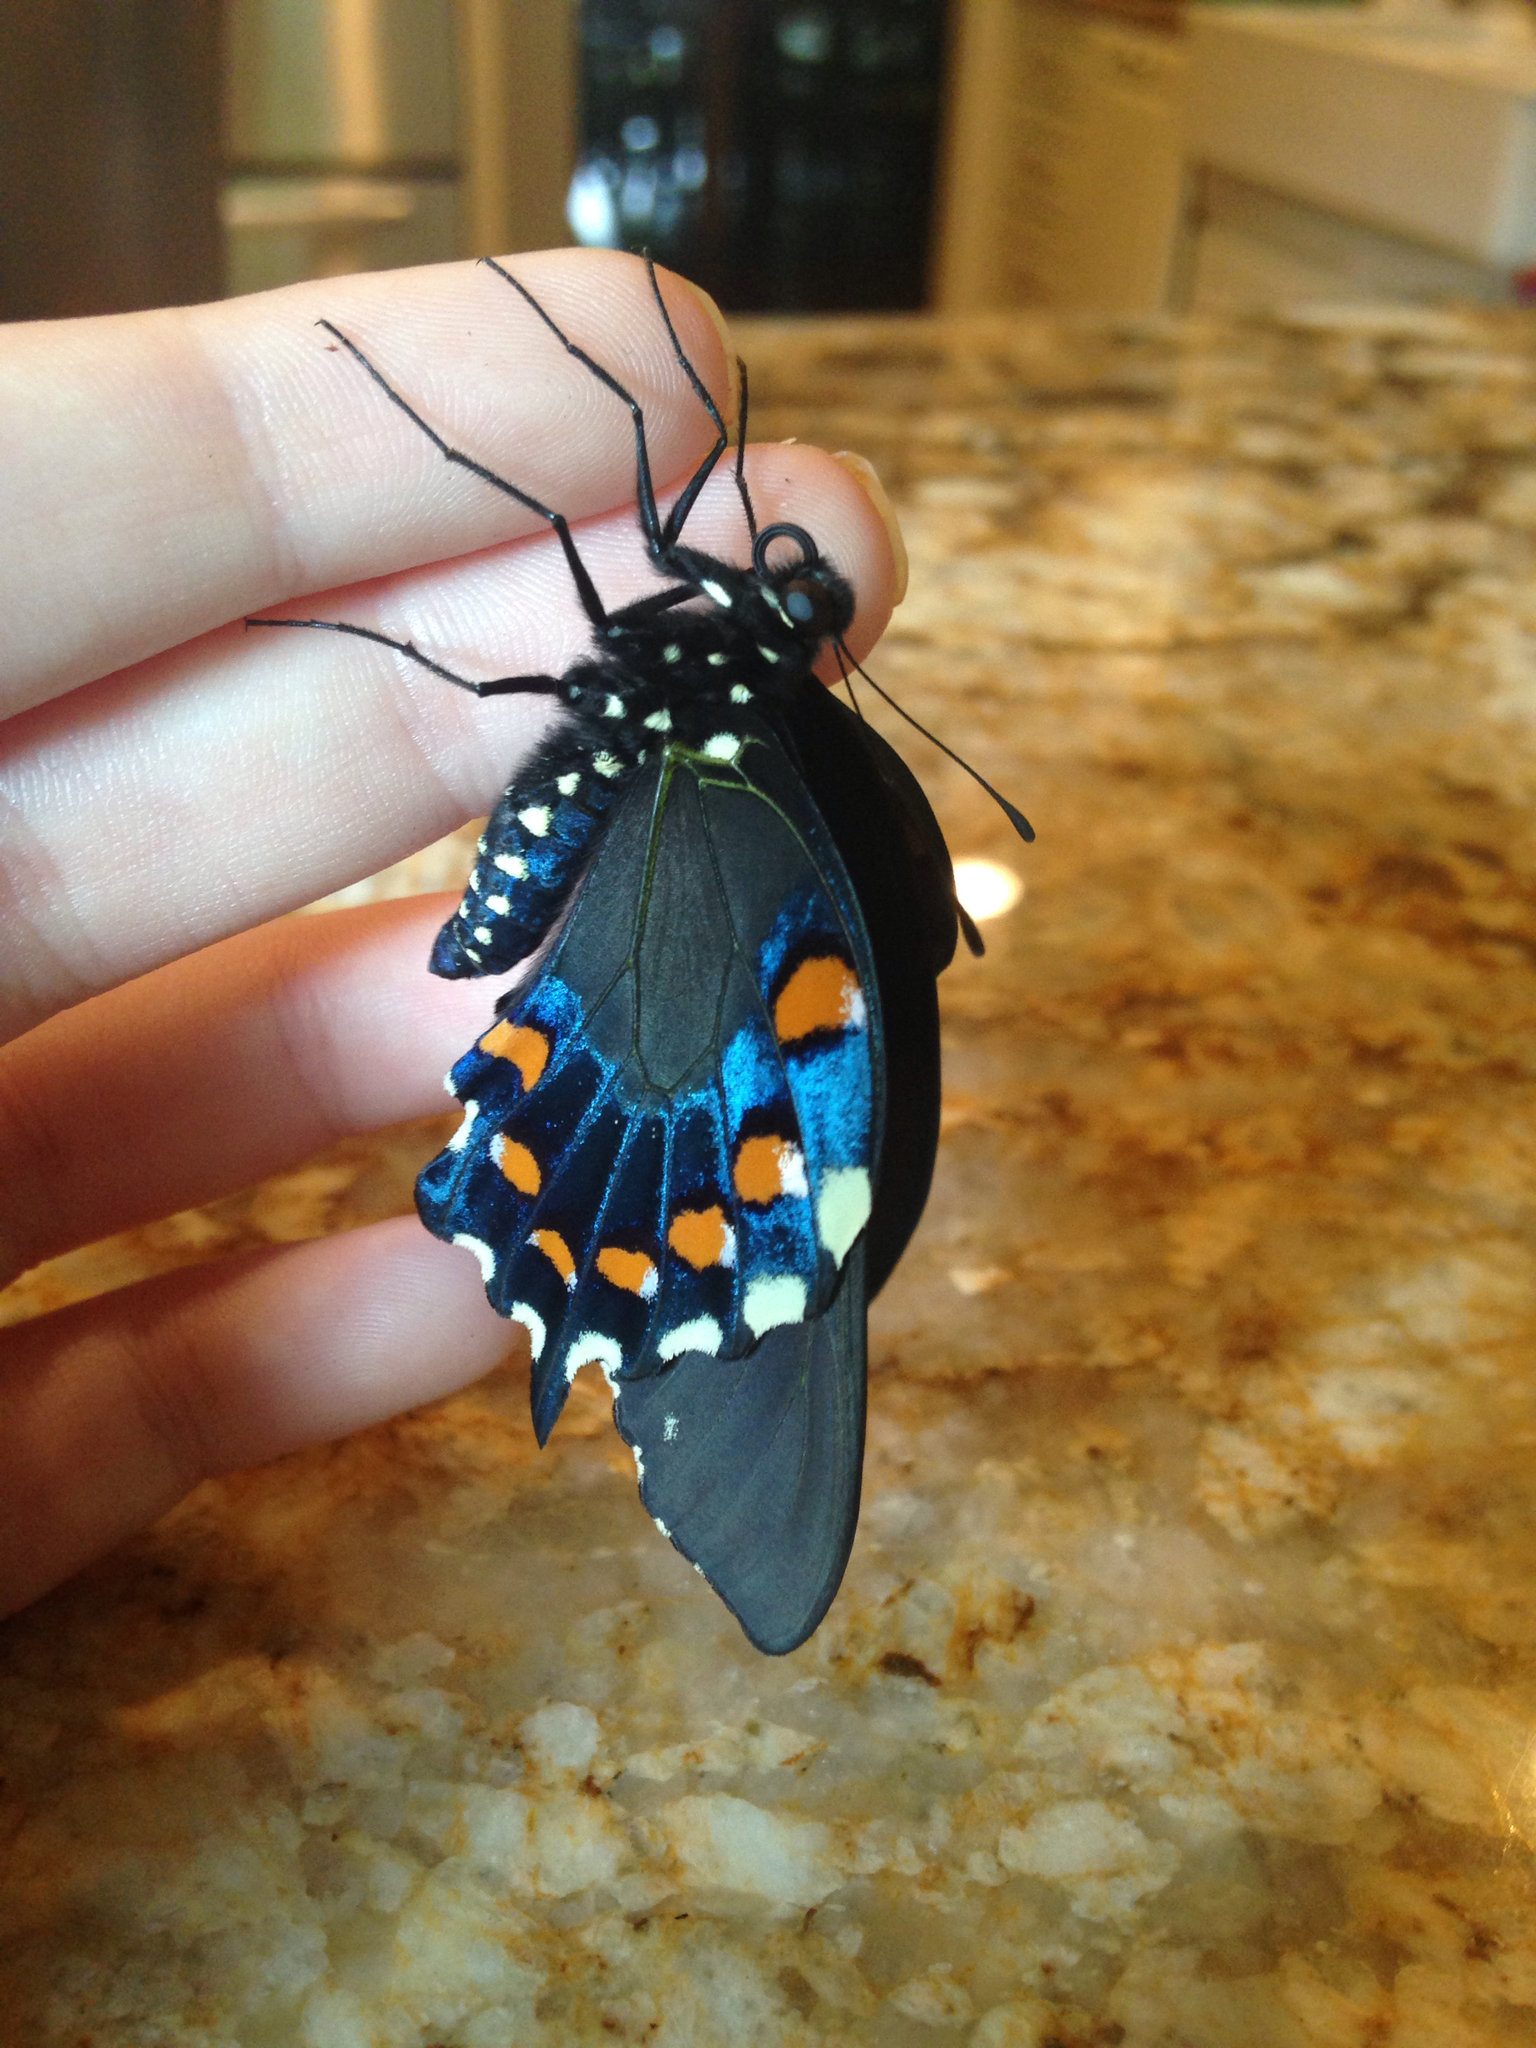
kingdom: Animalia
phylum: Arthropoda
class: Insecta
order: Lepidoptera
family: Papilionidae
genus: Battus
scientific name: Battus philenor
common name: Pipevine swallowtail
